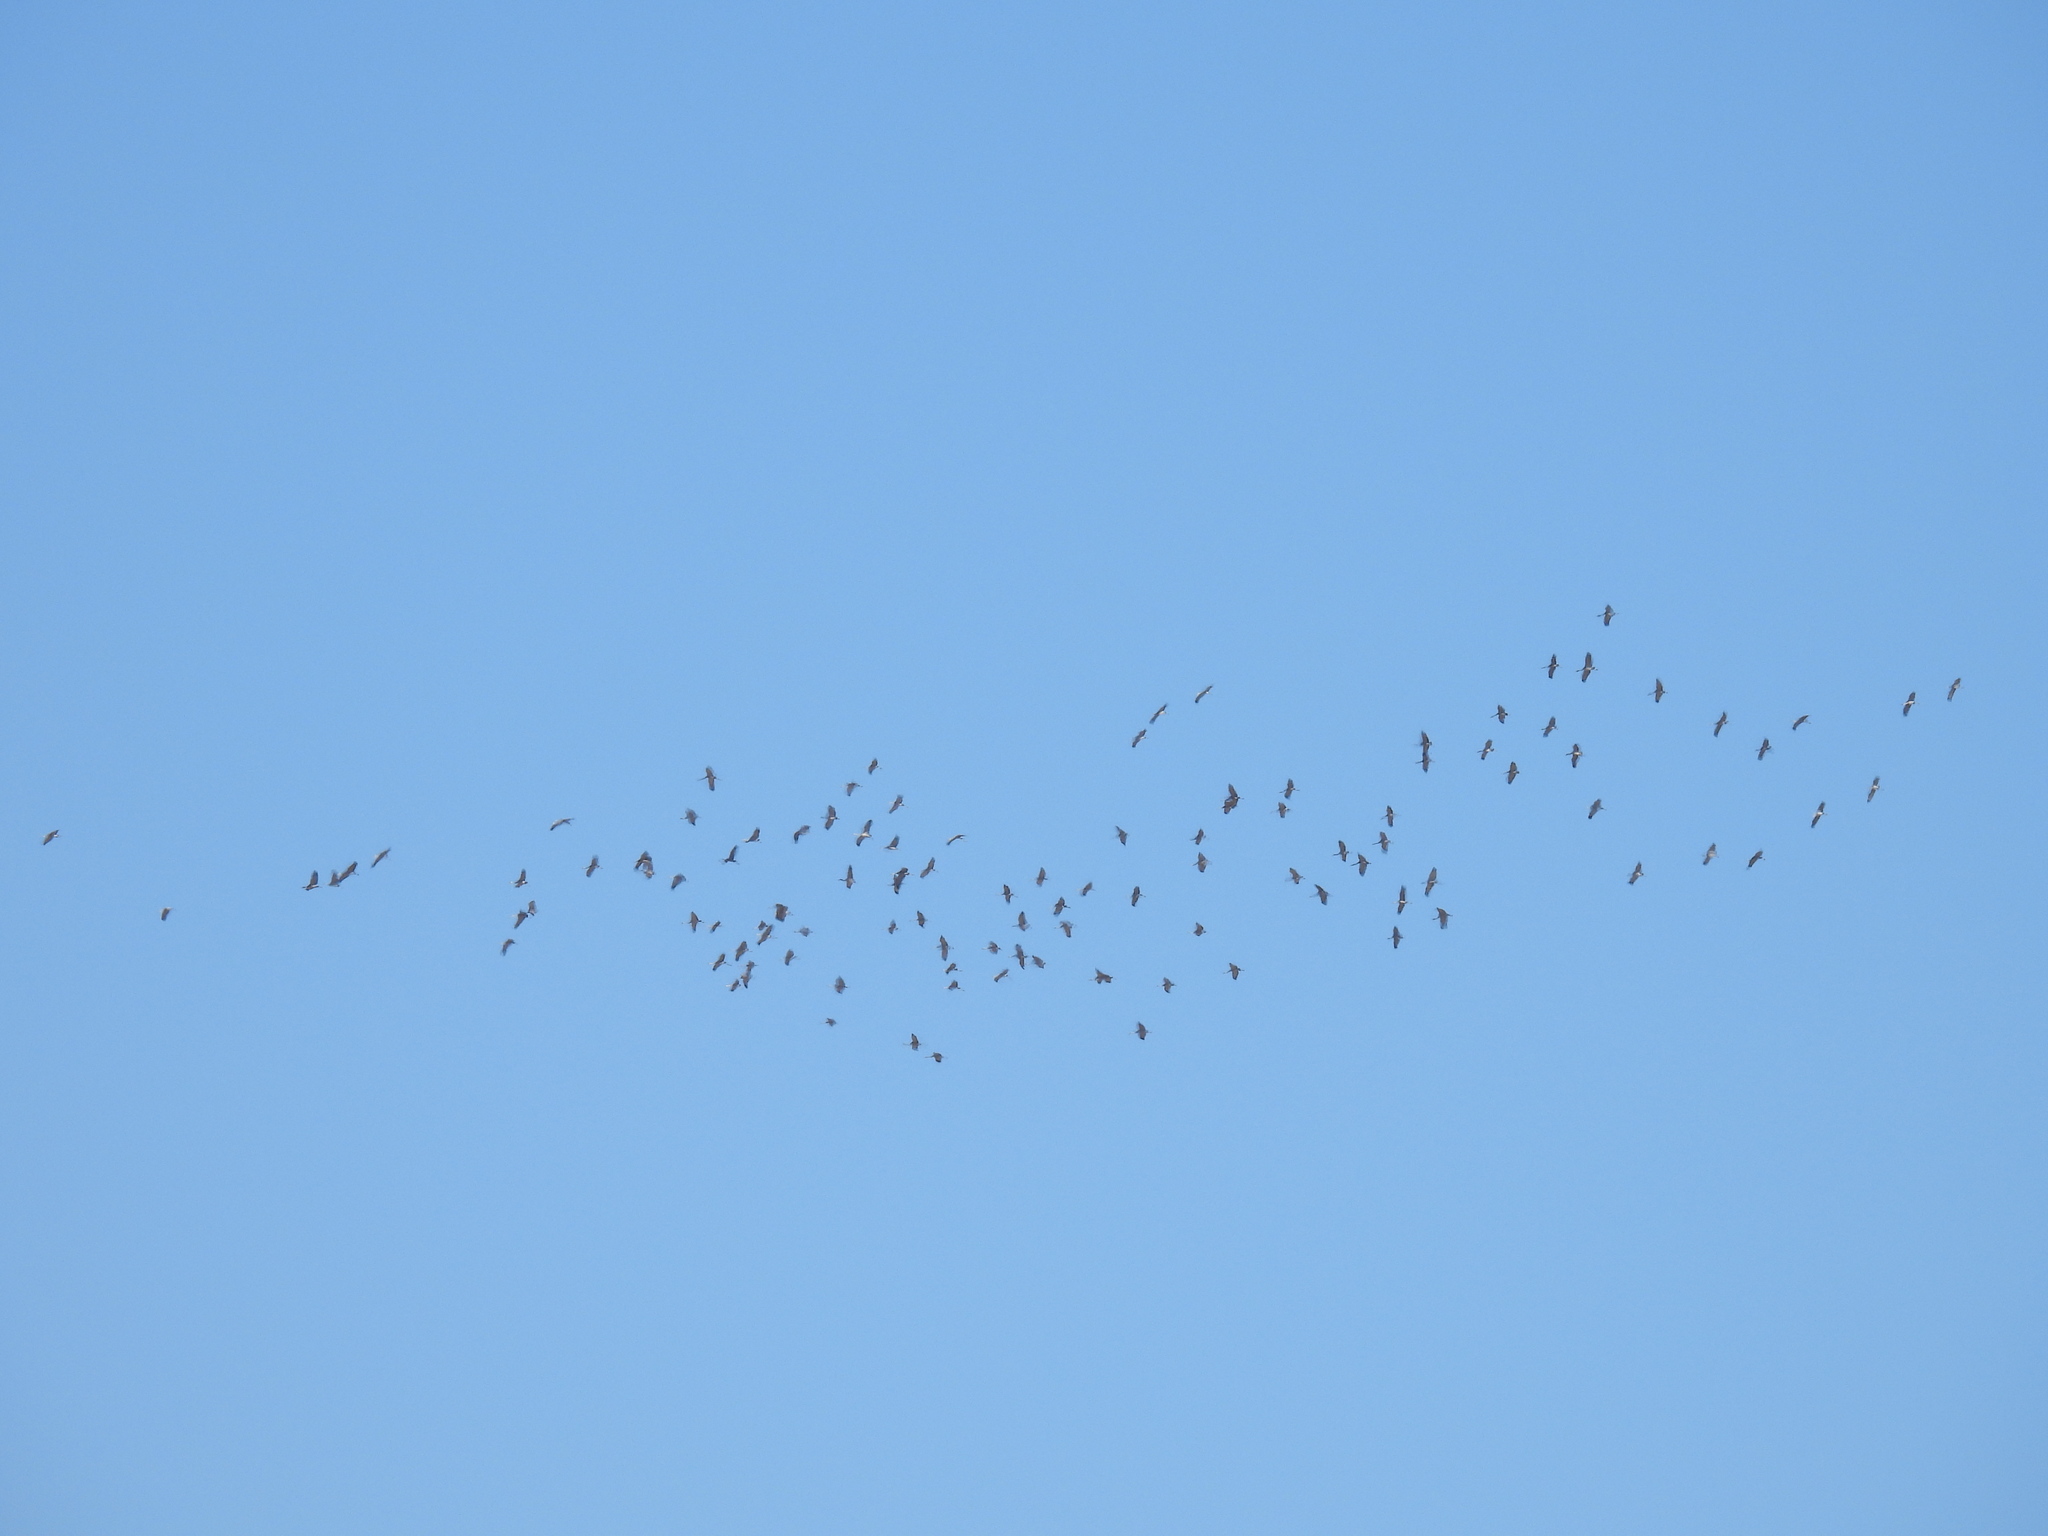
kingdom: Animalia
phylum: Chordata
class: Aves
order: Gruiformes
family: Gruidae
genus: Grus
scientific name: Grus canadensis
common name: Sandhill crane
